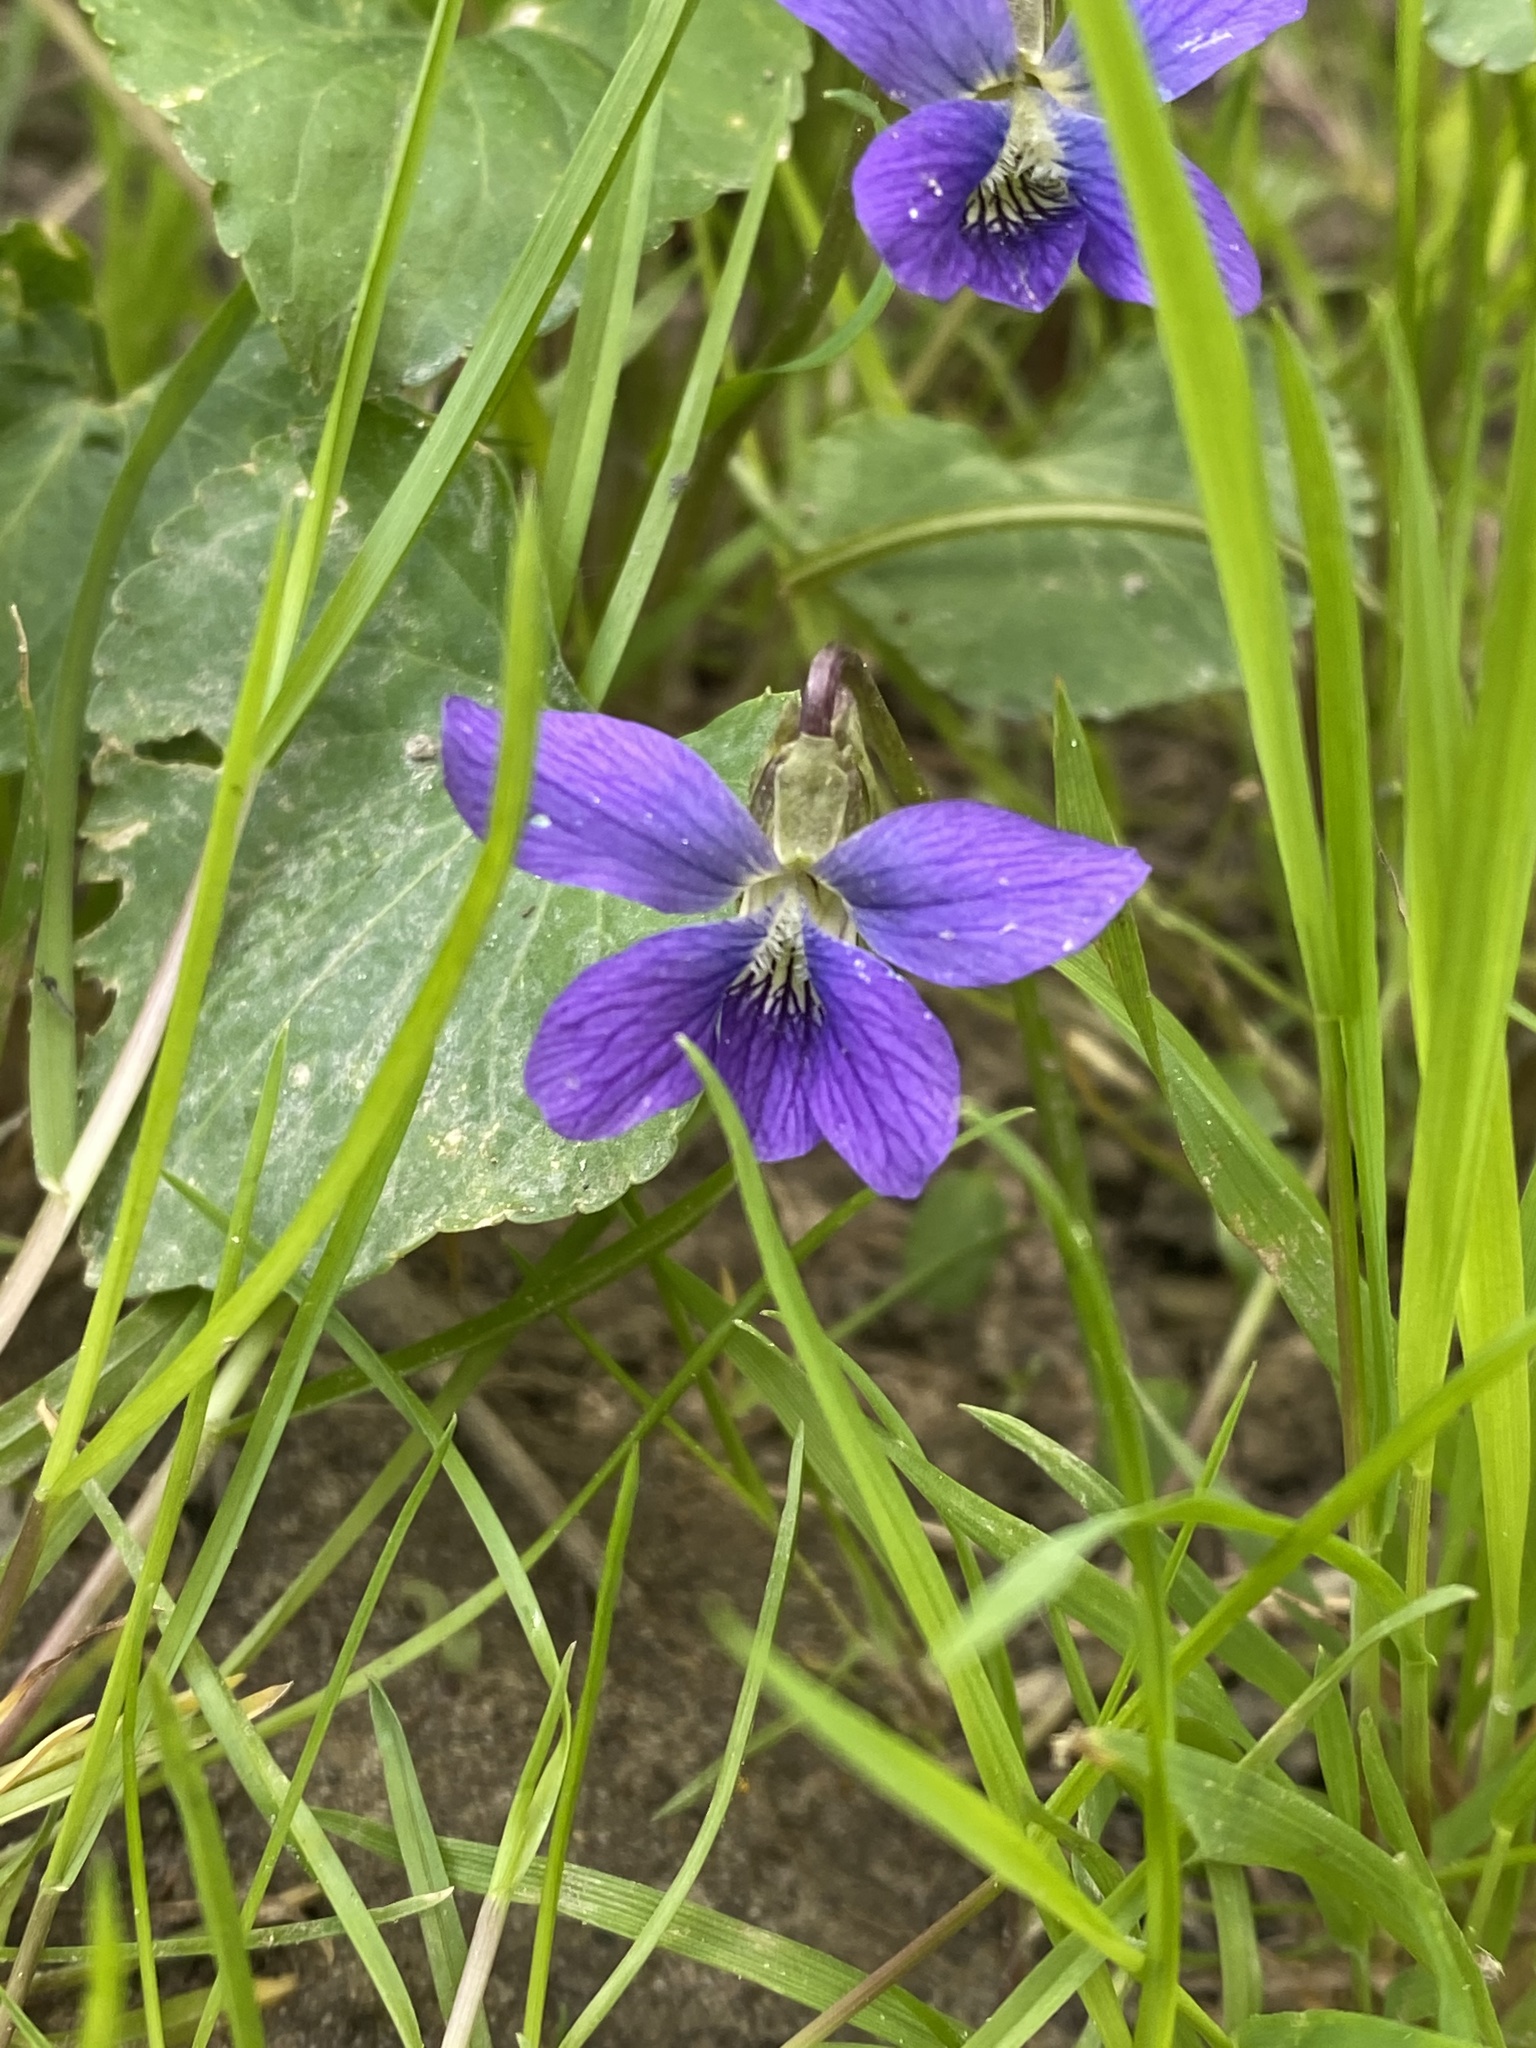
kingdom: Plantae
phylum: Tracheophyta
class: Magnoliopsida
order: Malpighiales
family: Violaceae
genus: Viola
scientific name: Viola sororia
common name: Dooryard violet
